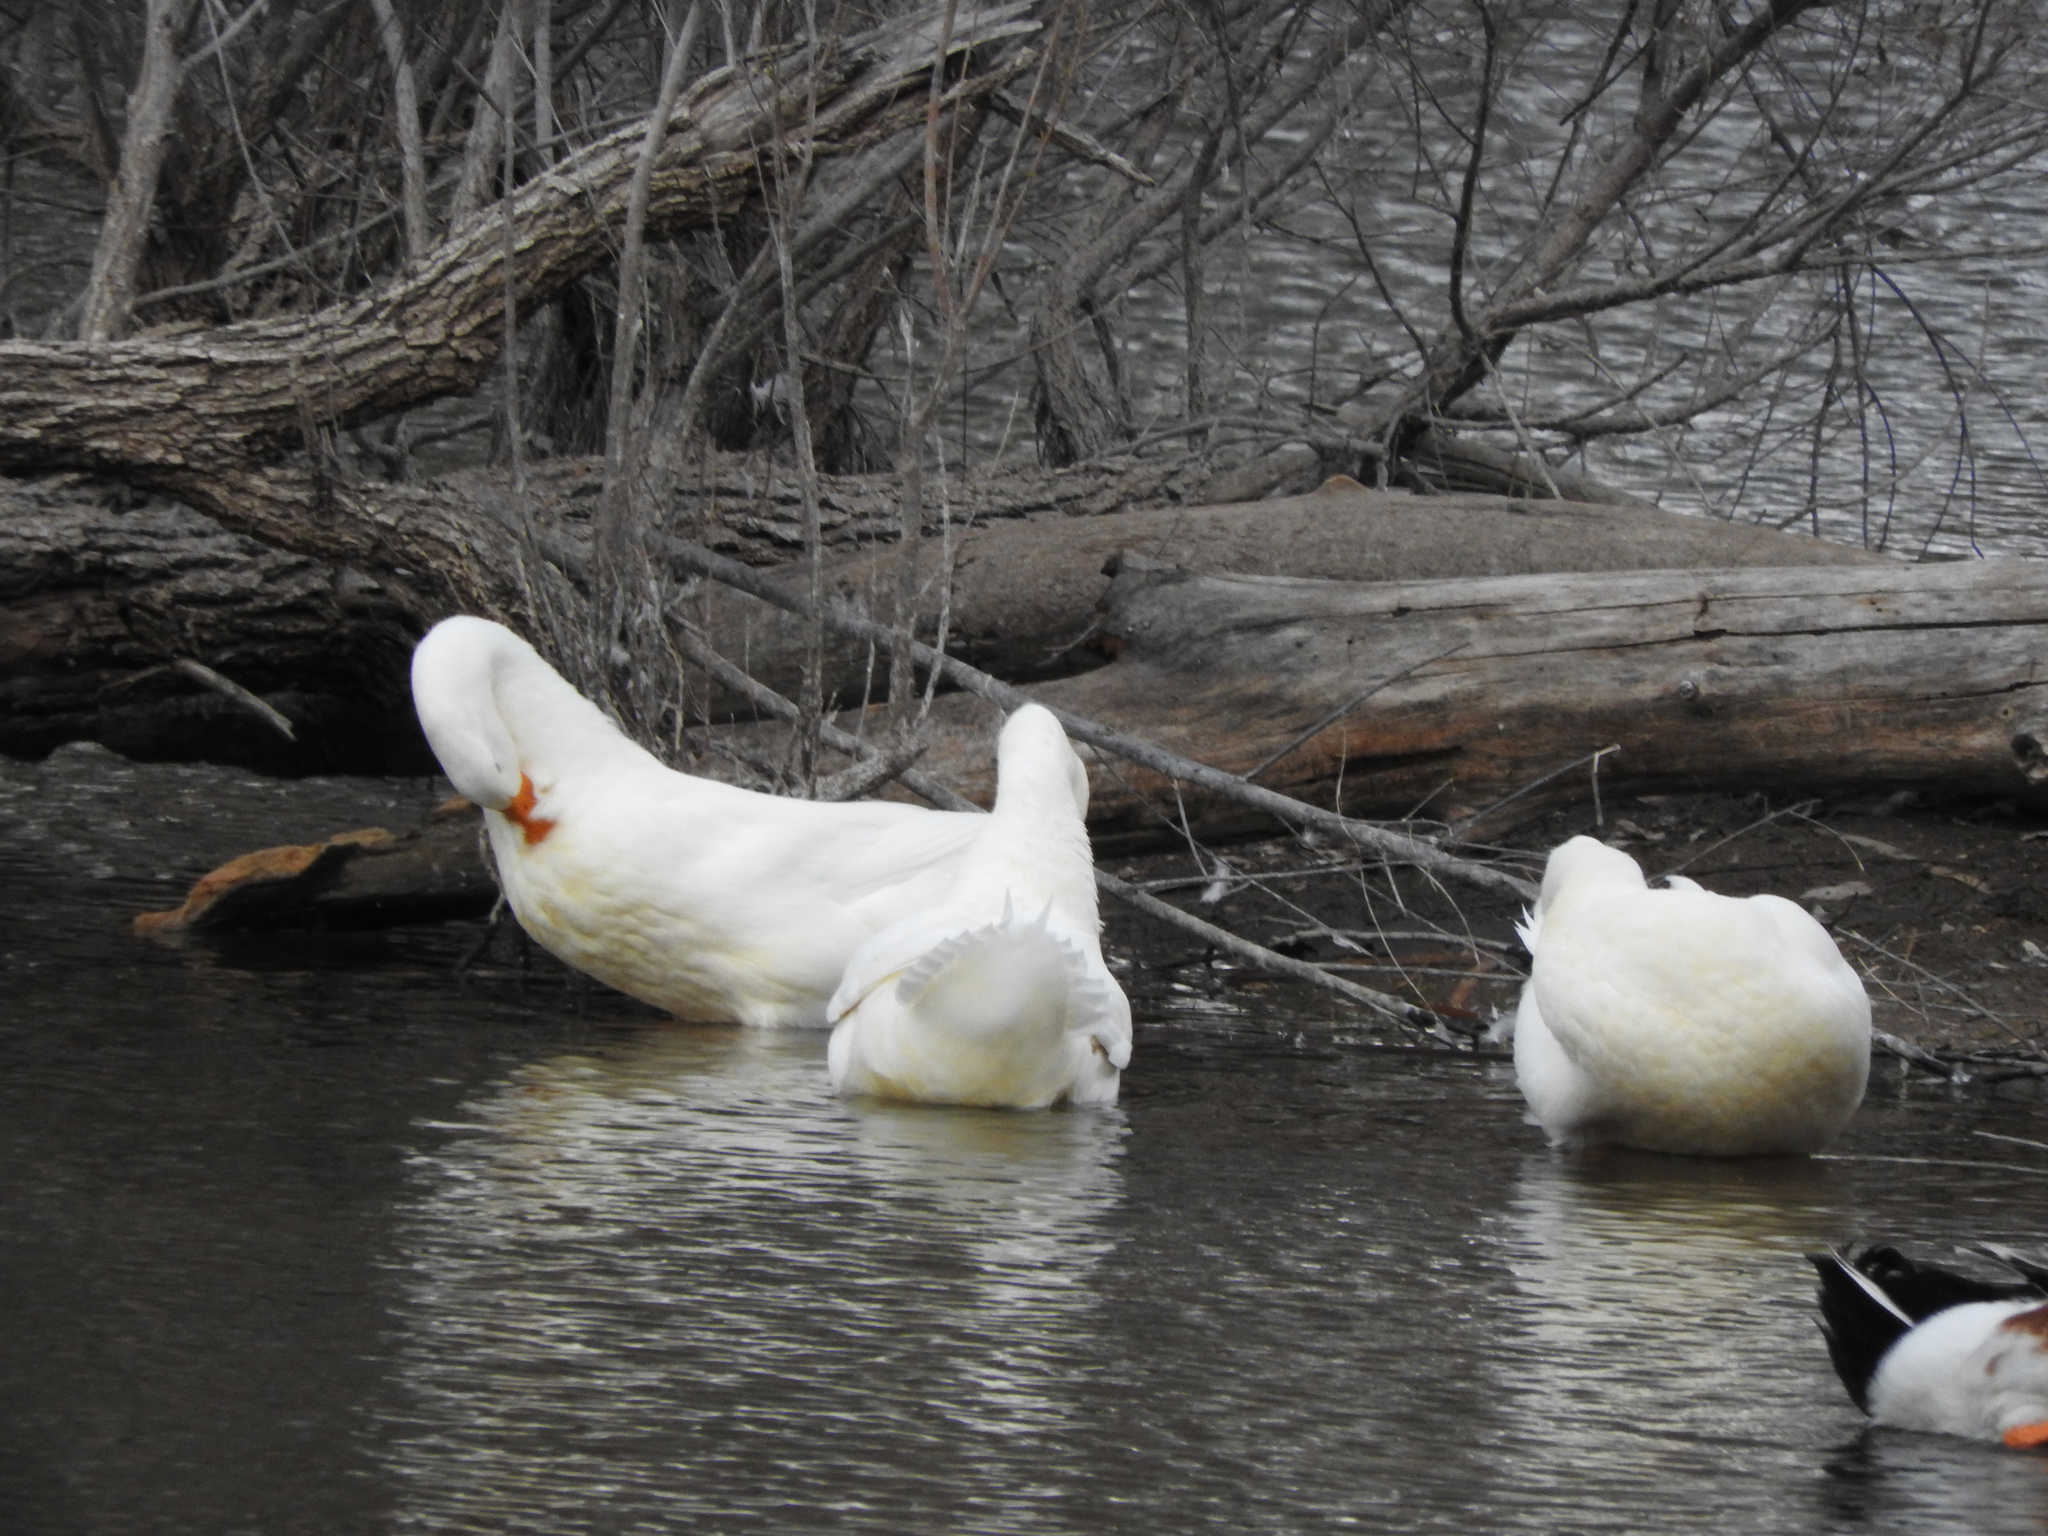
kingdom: Animalia
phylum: Chordata
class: Aves
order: Anseriformes
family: Anatidae
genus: Anser
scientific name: Anser anser
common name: Greylag goose
